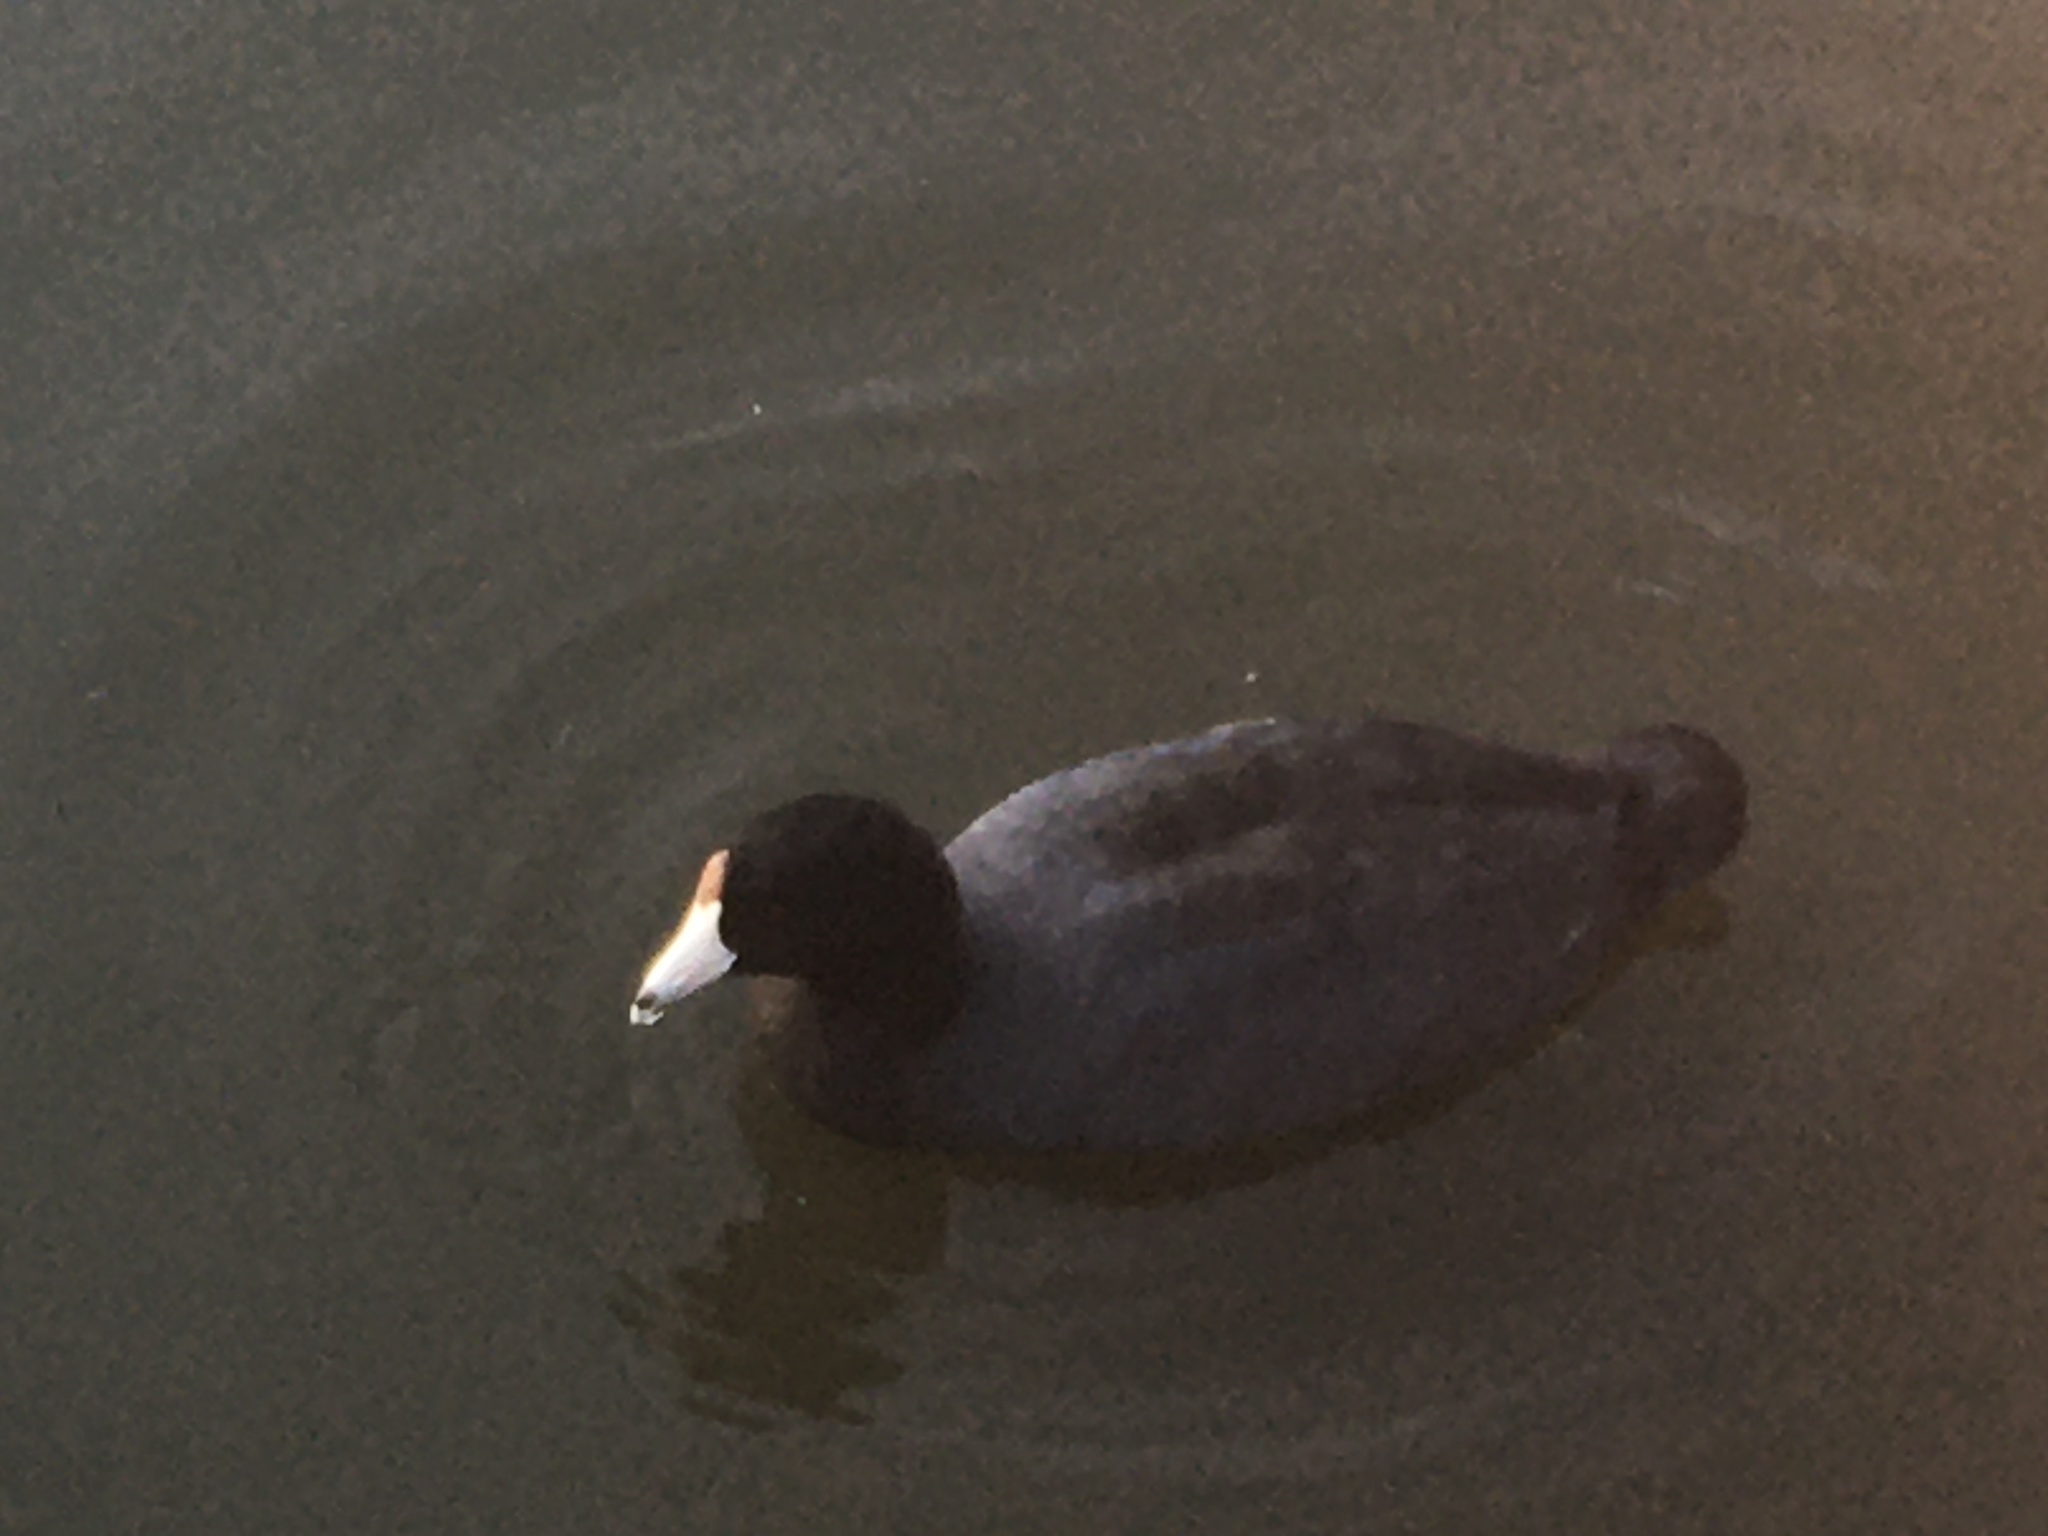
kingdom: Animalia
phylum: Chordata
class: Aves
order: Gruiformes
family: Rallidae
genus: Fulica
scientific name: Fulica americana
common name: American coot
